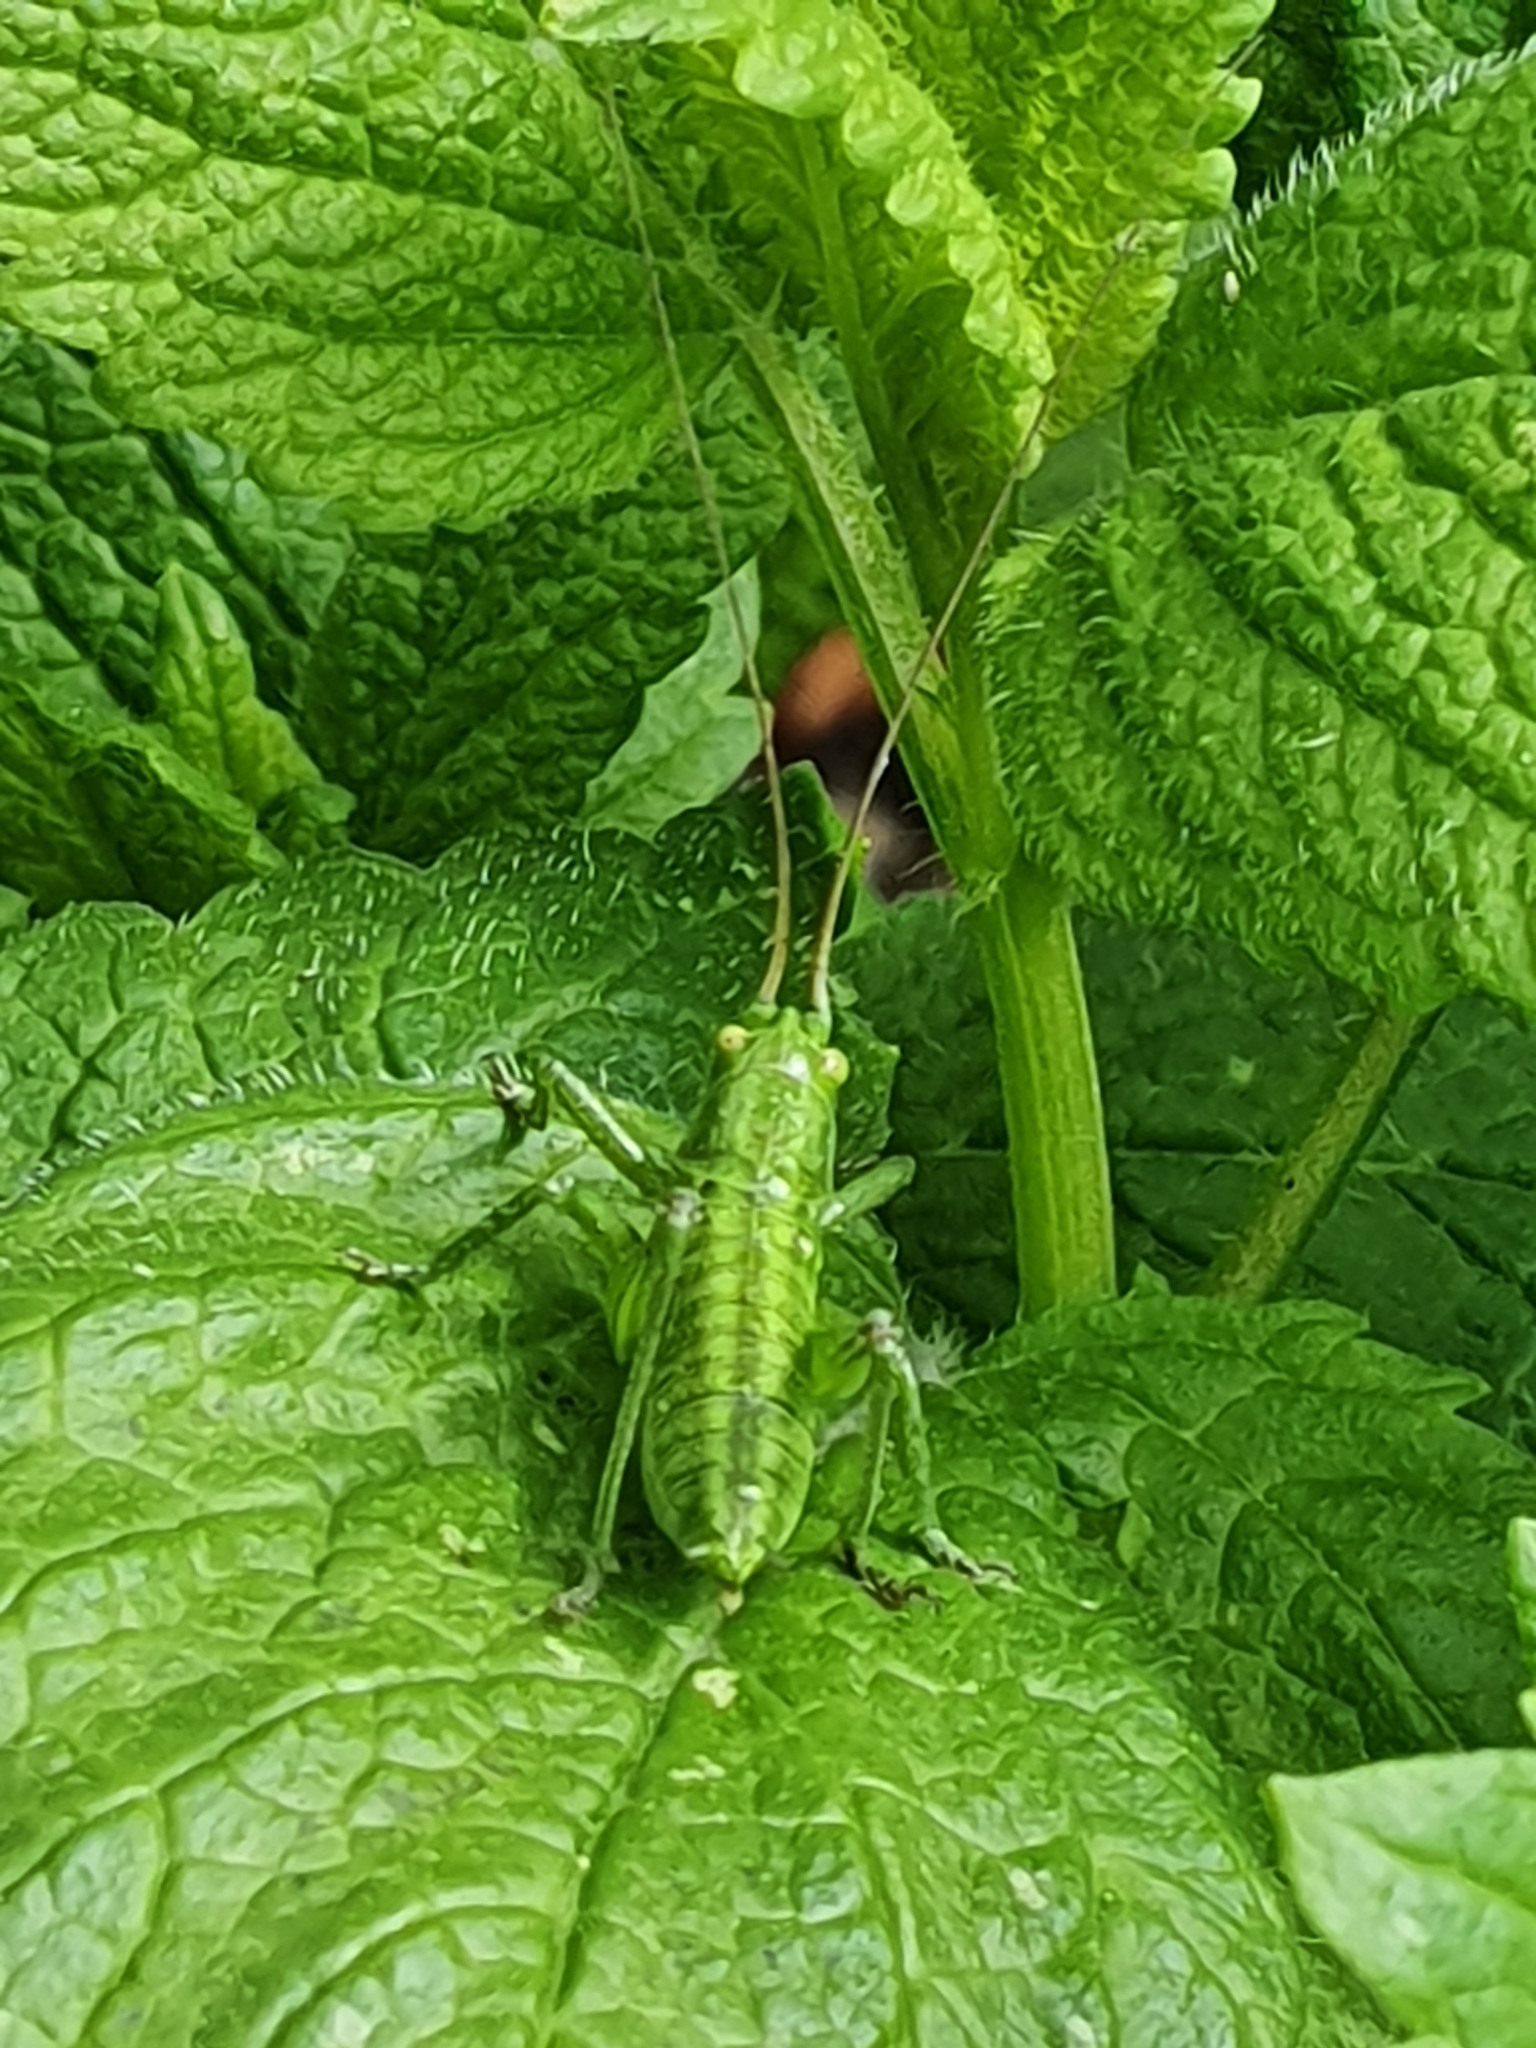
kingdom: Animalia
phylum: Arthropoda
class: Insecta
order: Orthoptera
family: Tettigoniidae
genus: Tettigonia
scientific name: Tettigonia viridissima
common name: Great green bush-cricket
